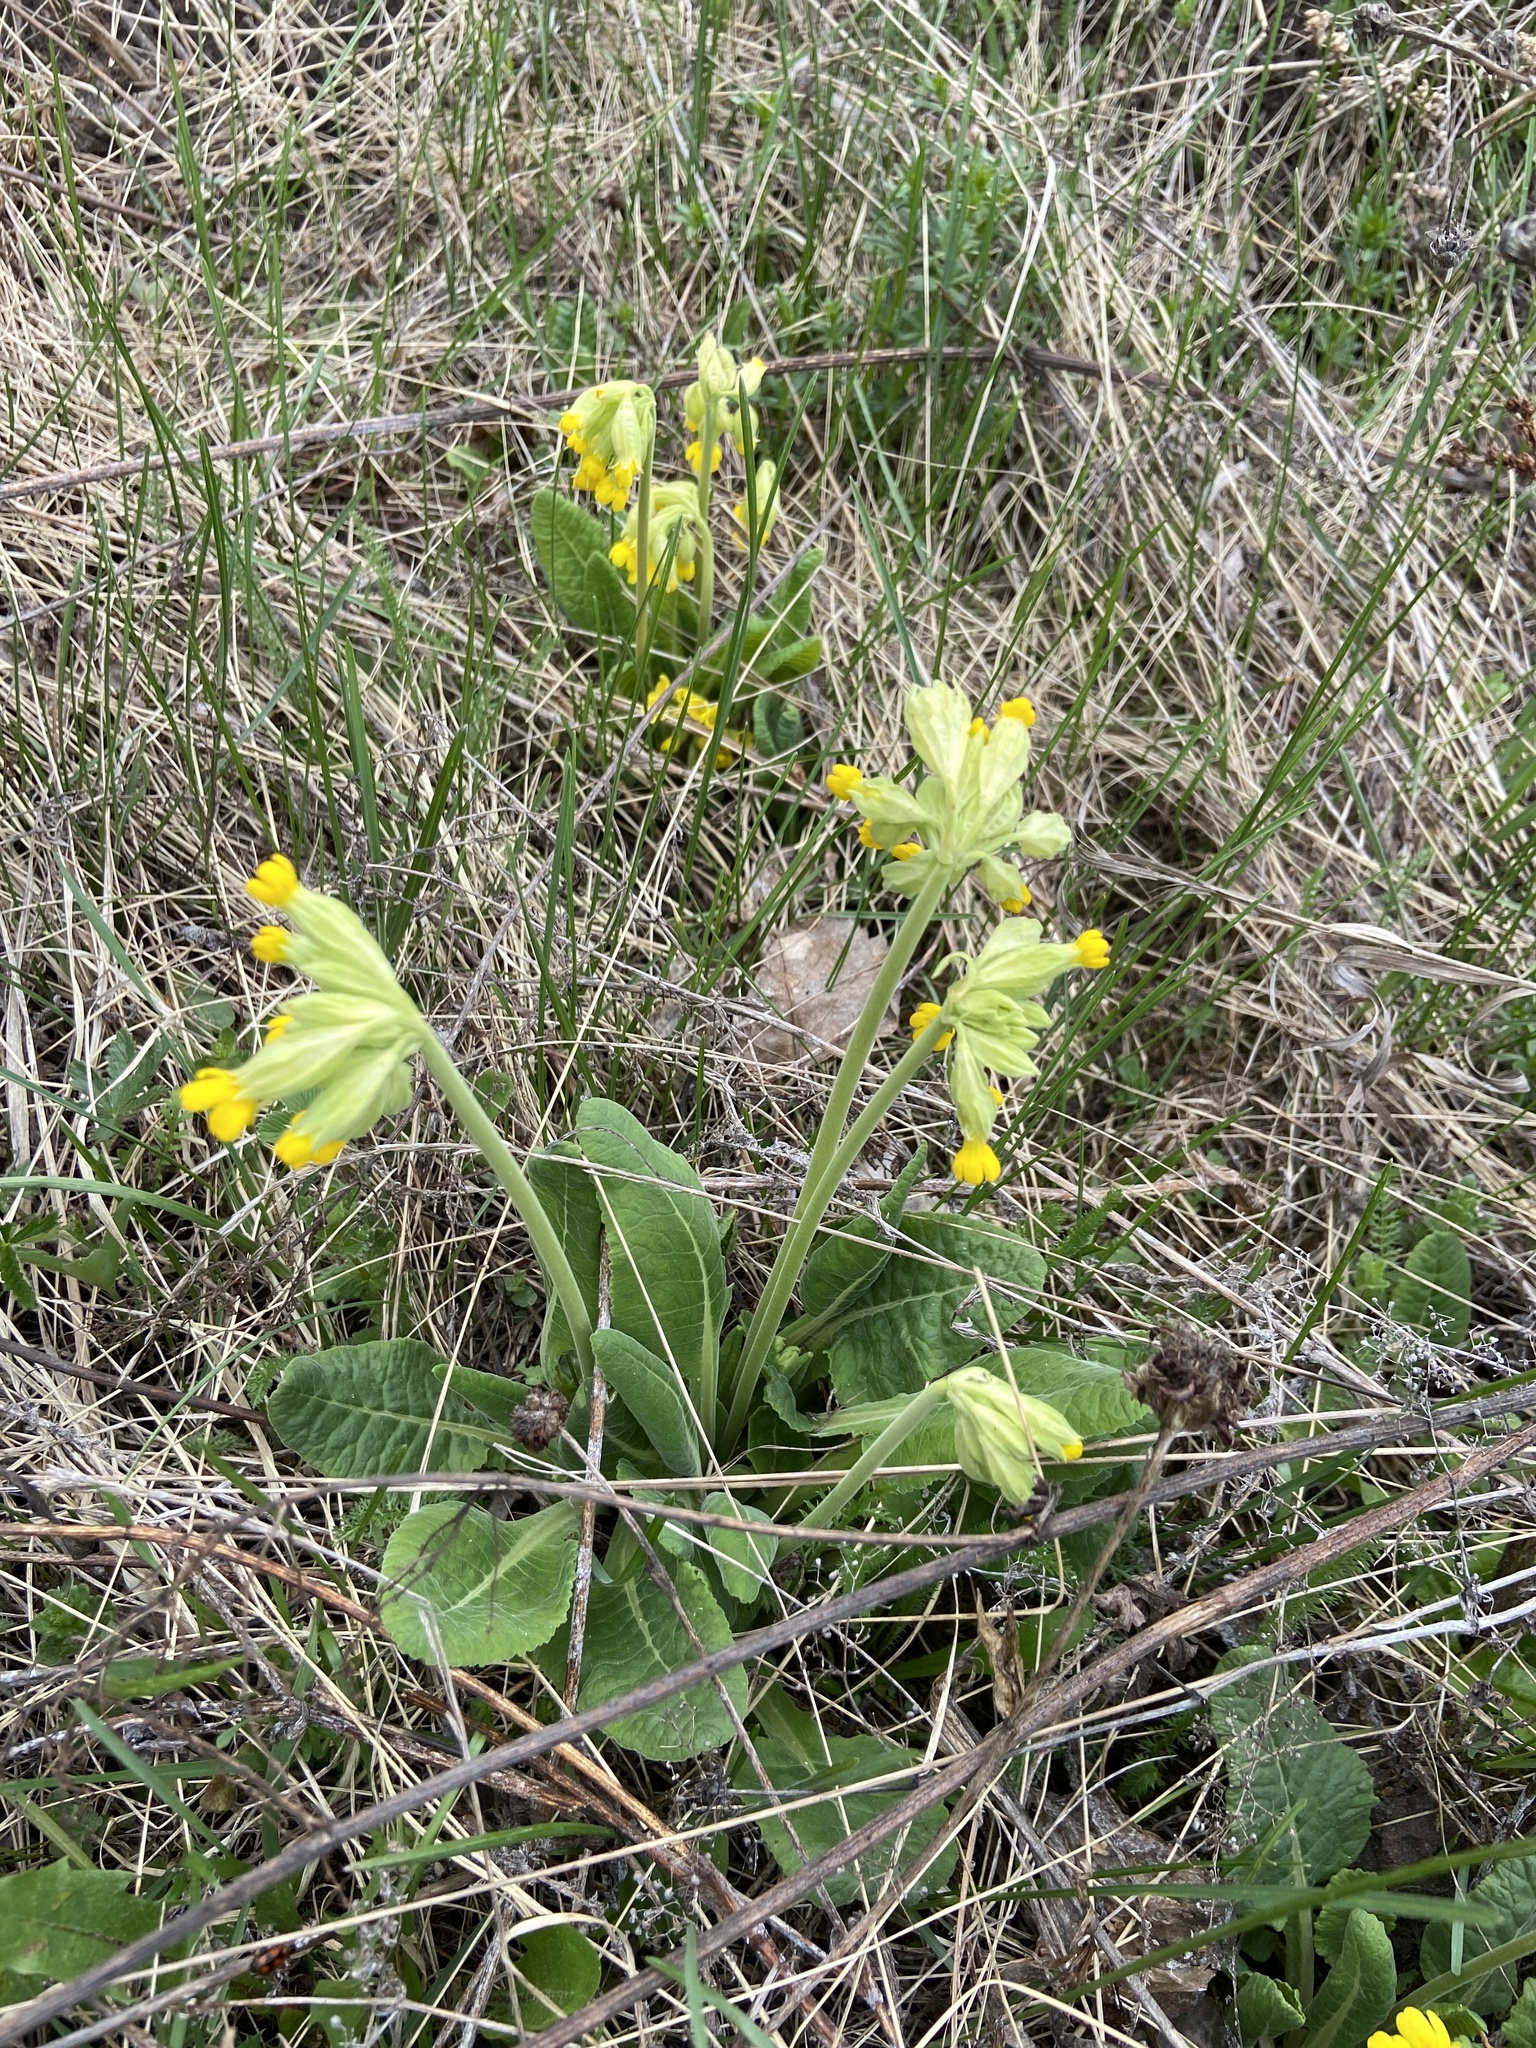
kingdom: Plantae
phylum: Tracheophyta
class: Magnoliopsida
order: Ericales
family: Primulaceae
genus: Primula
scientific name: Primula veris
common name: Cowslip
